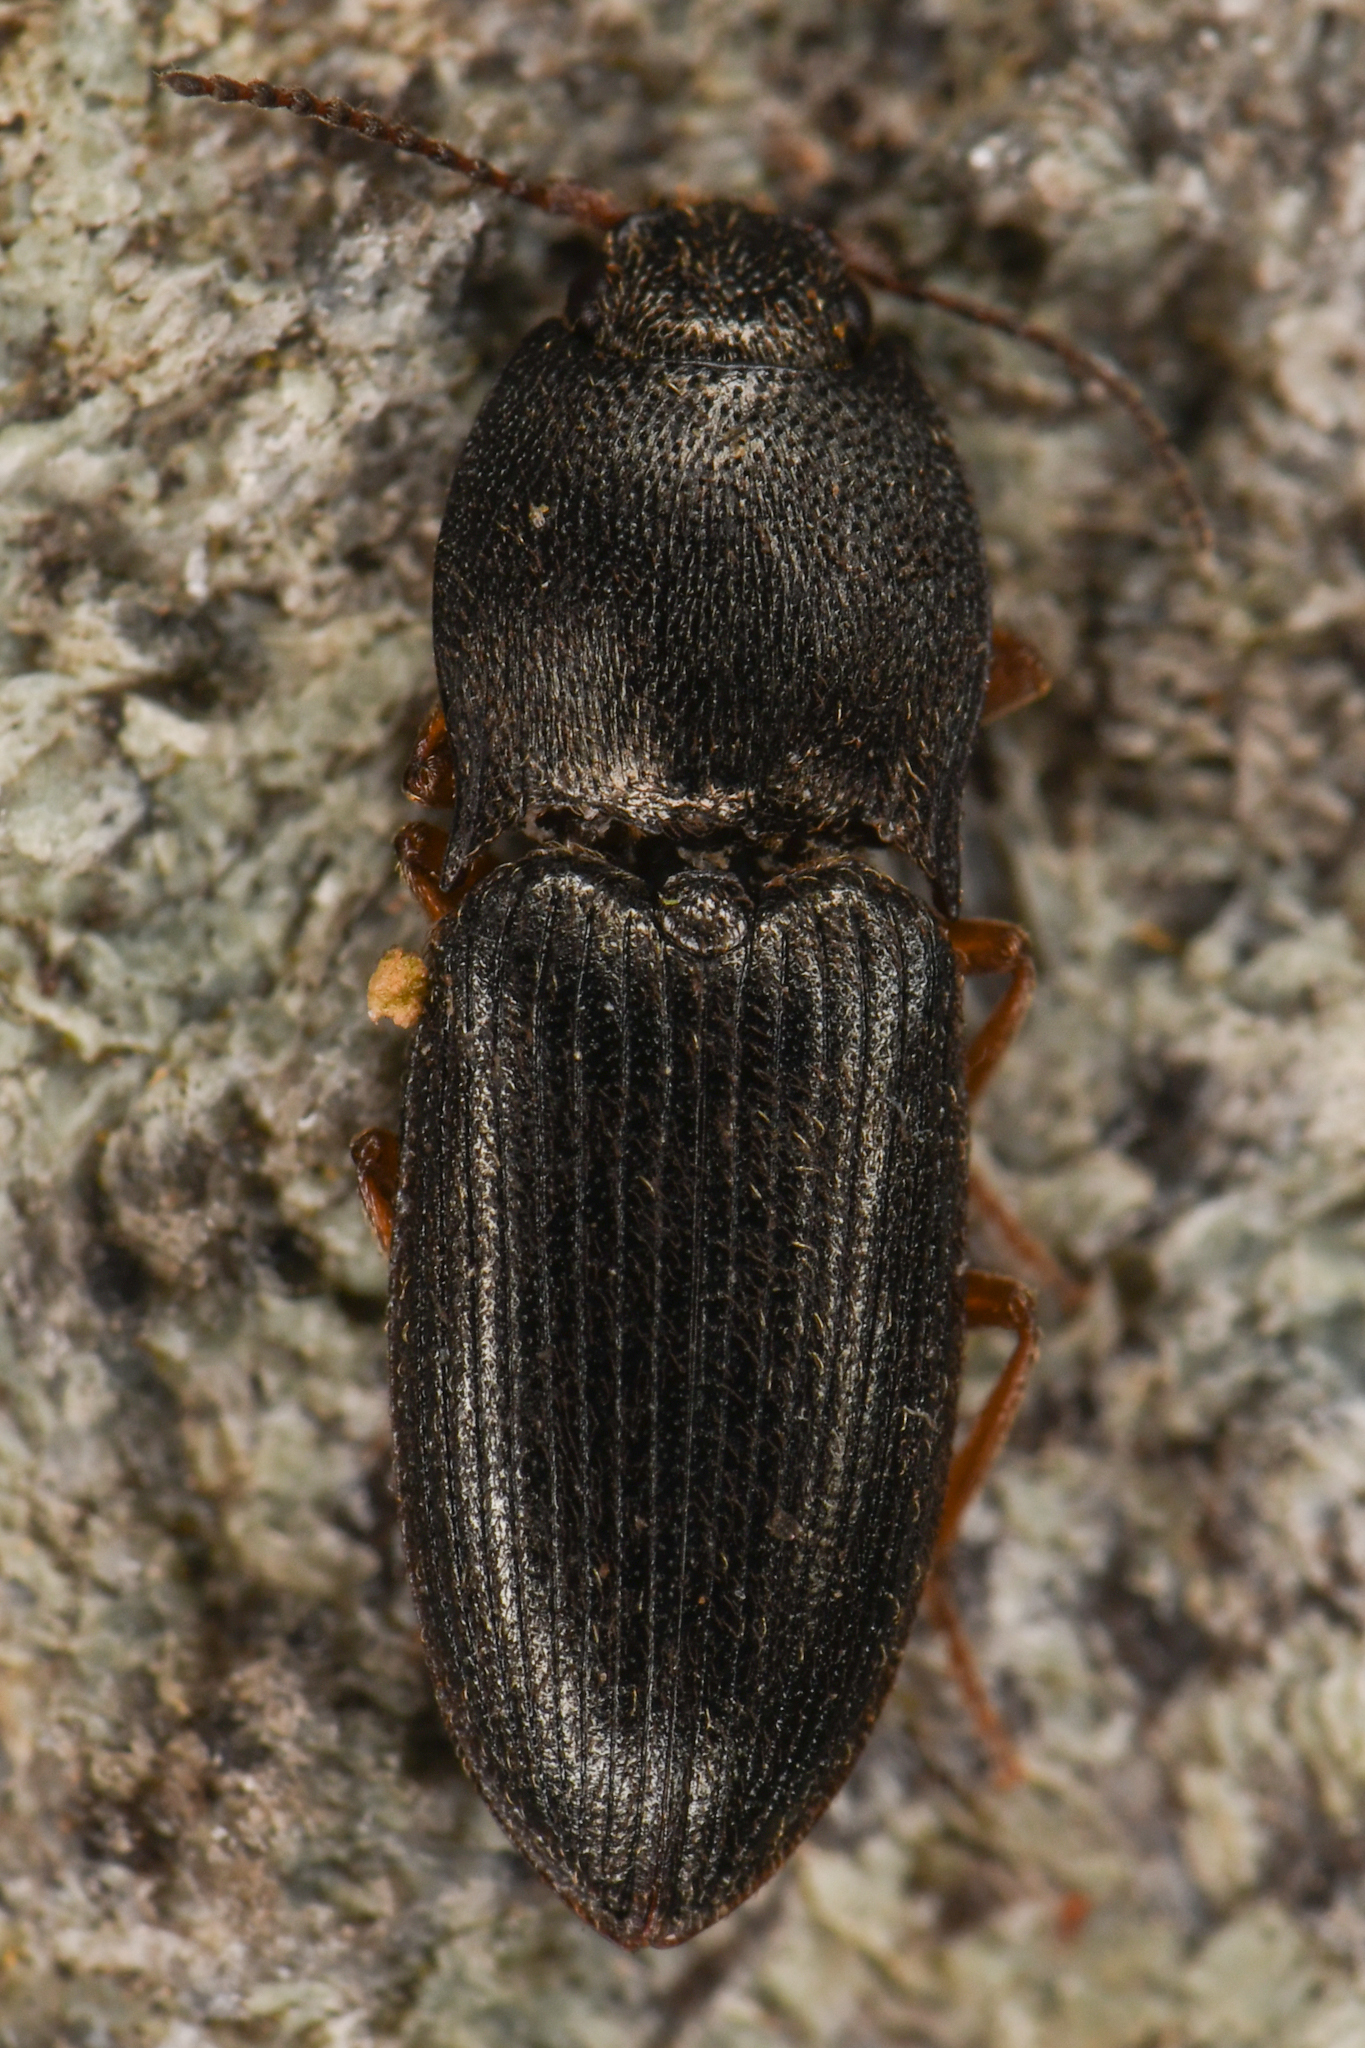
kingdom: Animalia
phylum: Arthropoda
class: Insecta
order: Coleoptera
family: Elateridae
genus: Hypnoidus
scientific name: Hypnoidus squalidus
